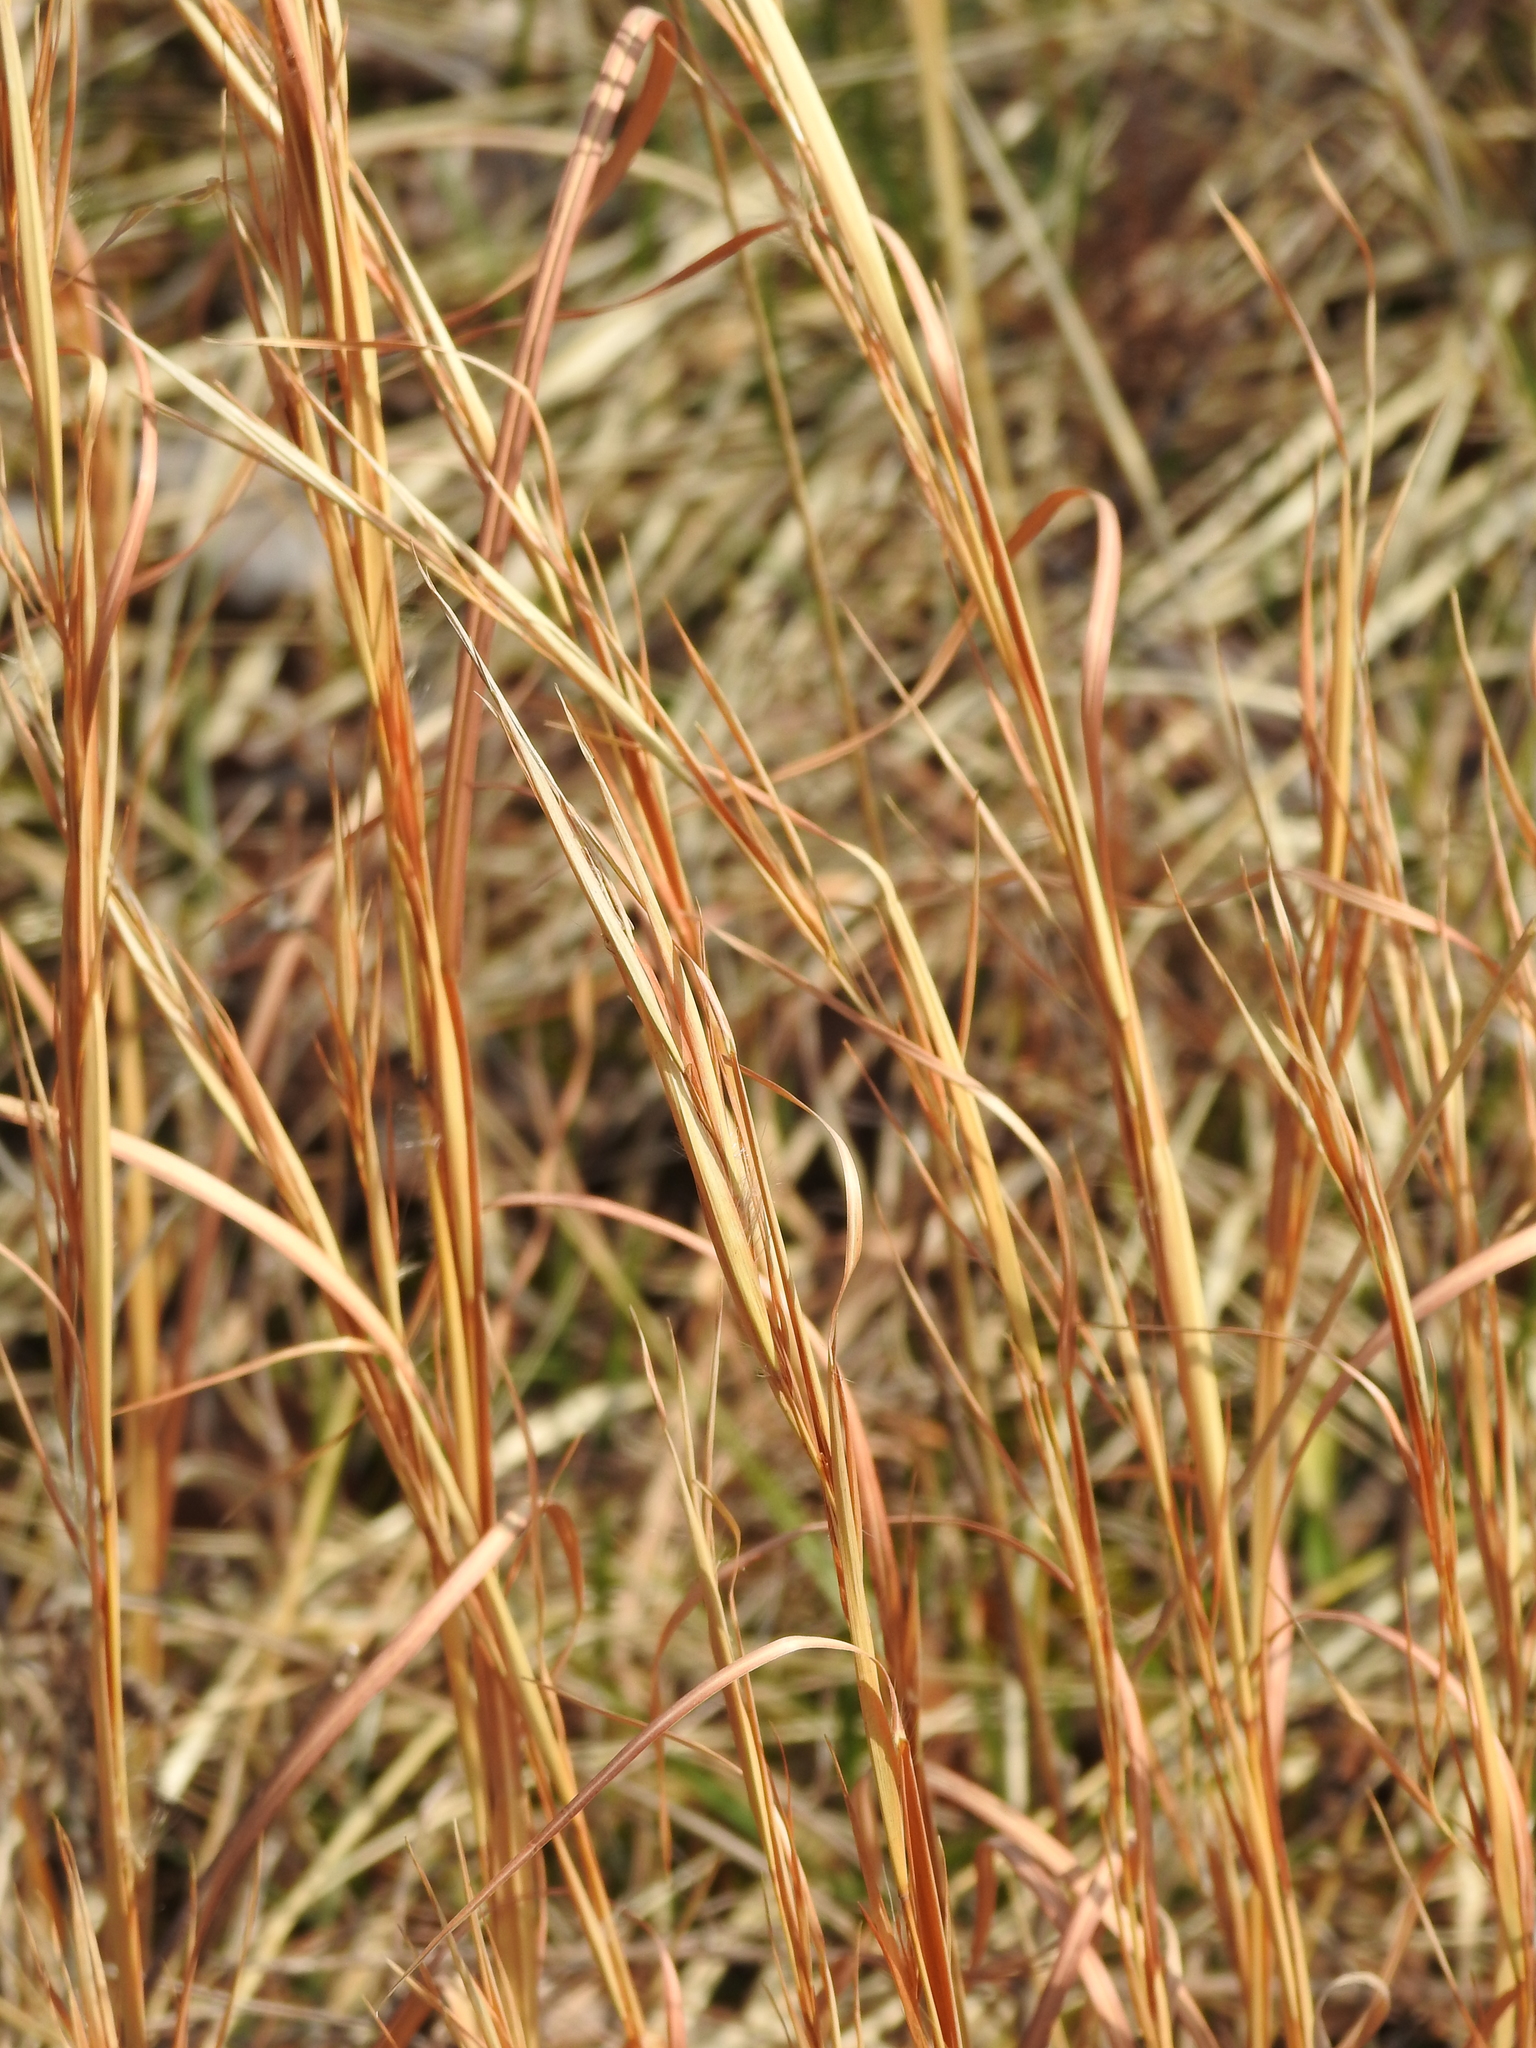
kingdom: Plantae
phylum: Tracheophyta
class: Liliopsida
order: Poales
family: Poaceae
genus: Andropogon
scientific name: Andropogon virginicus
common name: Broomsedge bluestem
